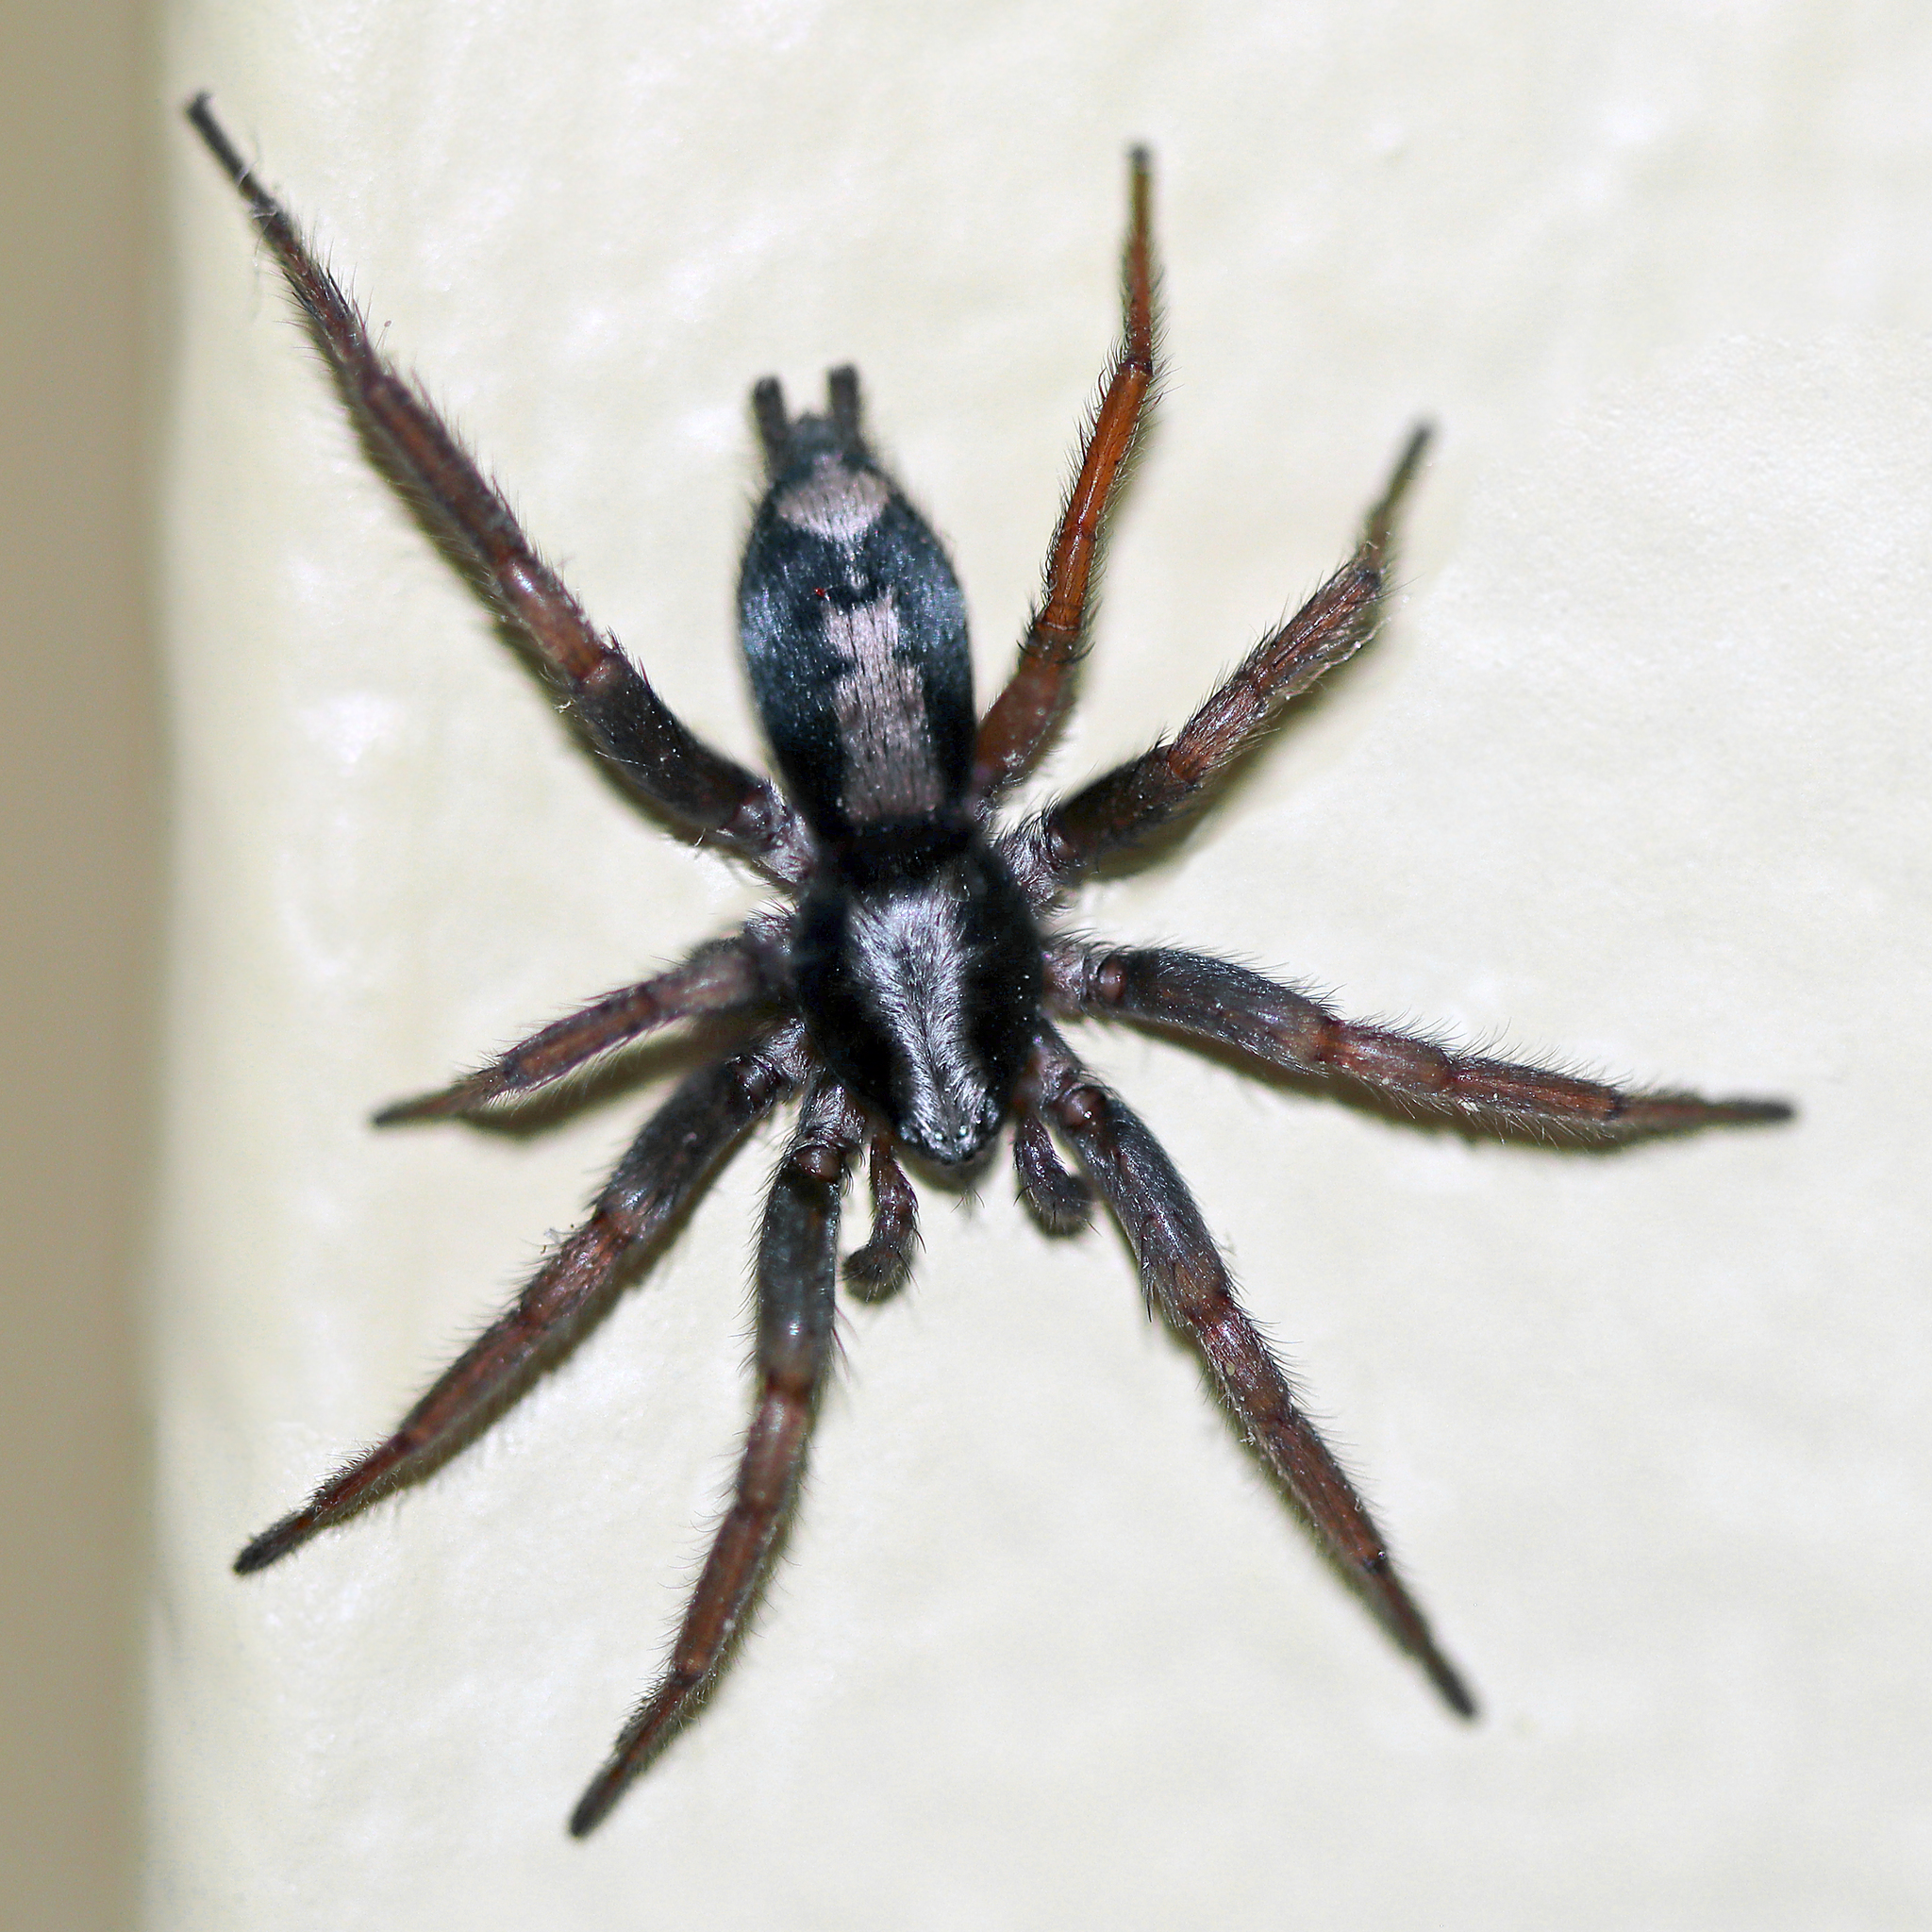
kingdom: Animalia
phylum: Arthropoda
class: Arachnida
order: Araneae
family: Gnaphosidae
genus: Herpyllus
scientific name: Herpyllus ecclesiasticus
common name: Eastern parson spider
